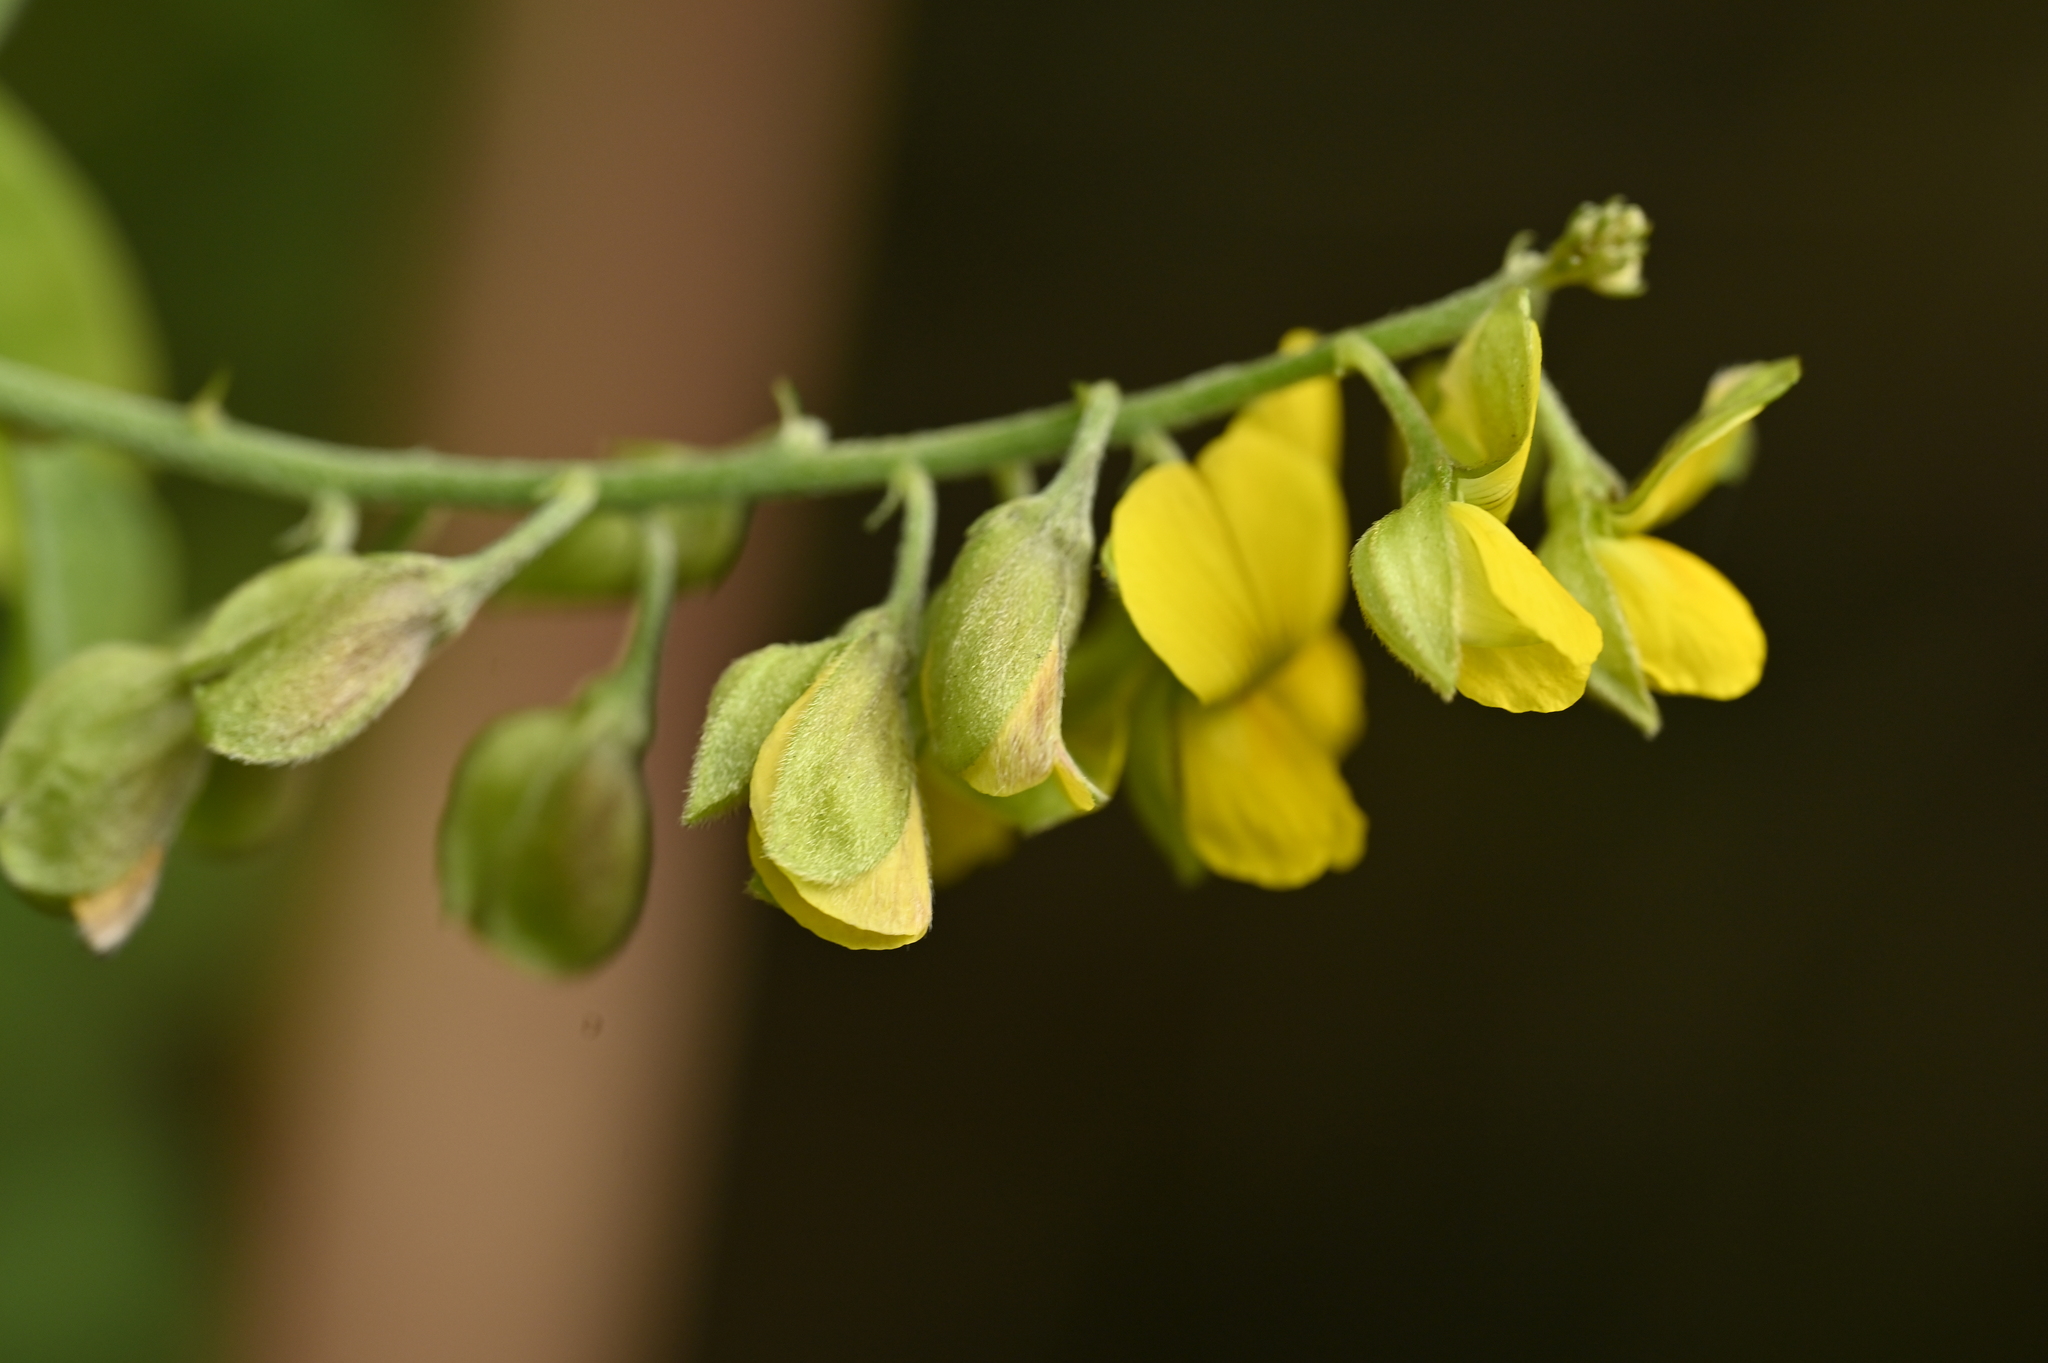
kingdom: Plantae
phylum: Tracheophyta
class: Magnoliopsida
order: Fabales
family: Fabaceae
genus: Crotalaria
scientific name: Crotalaria albida
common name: Taiwan crotalaria
